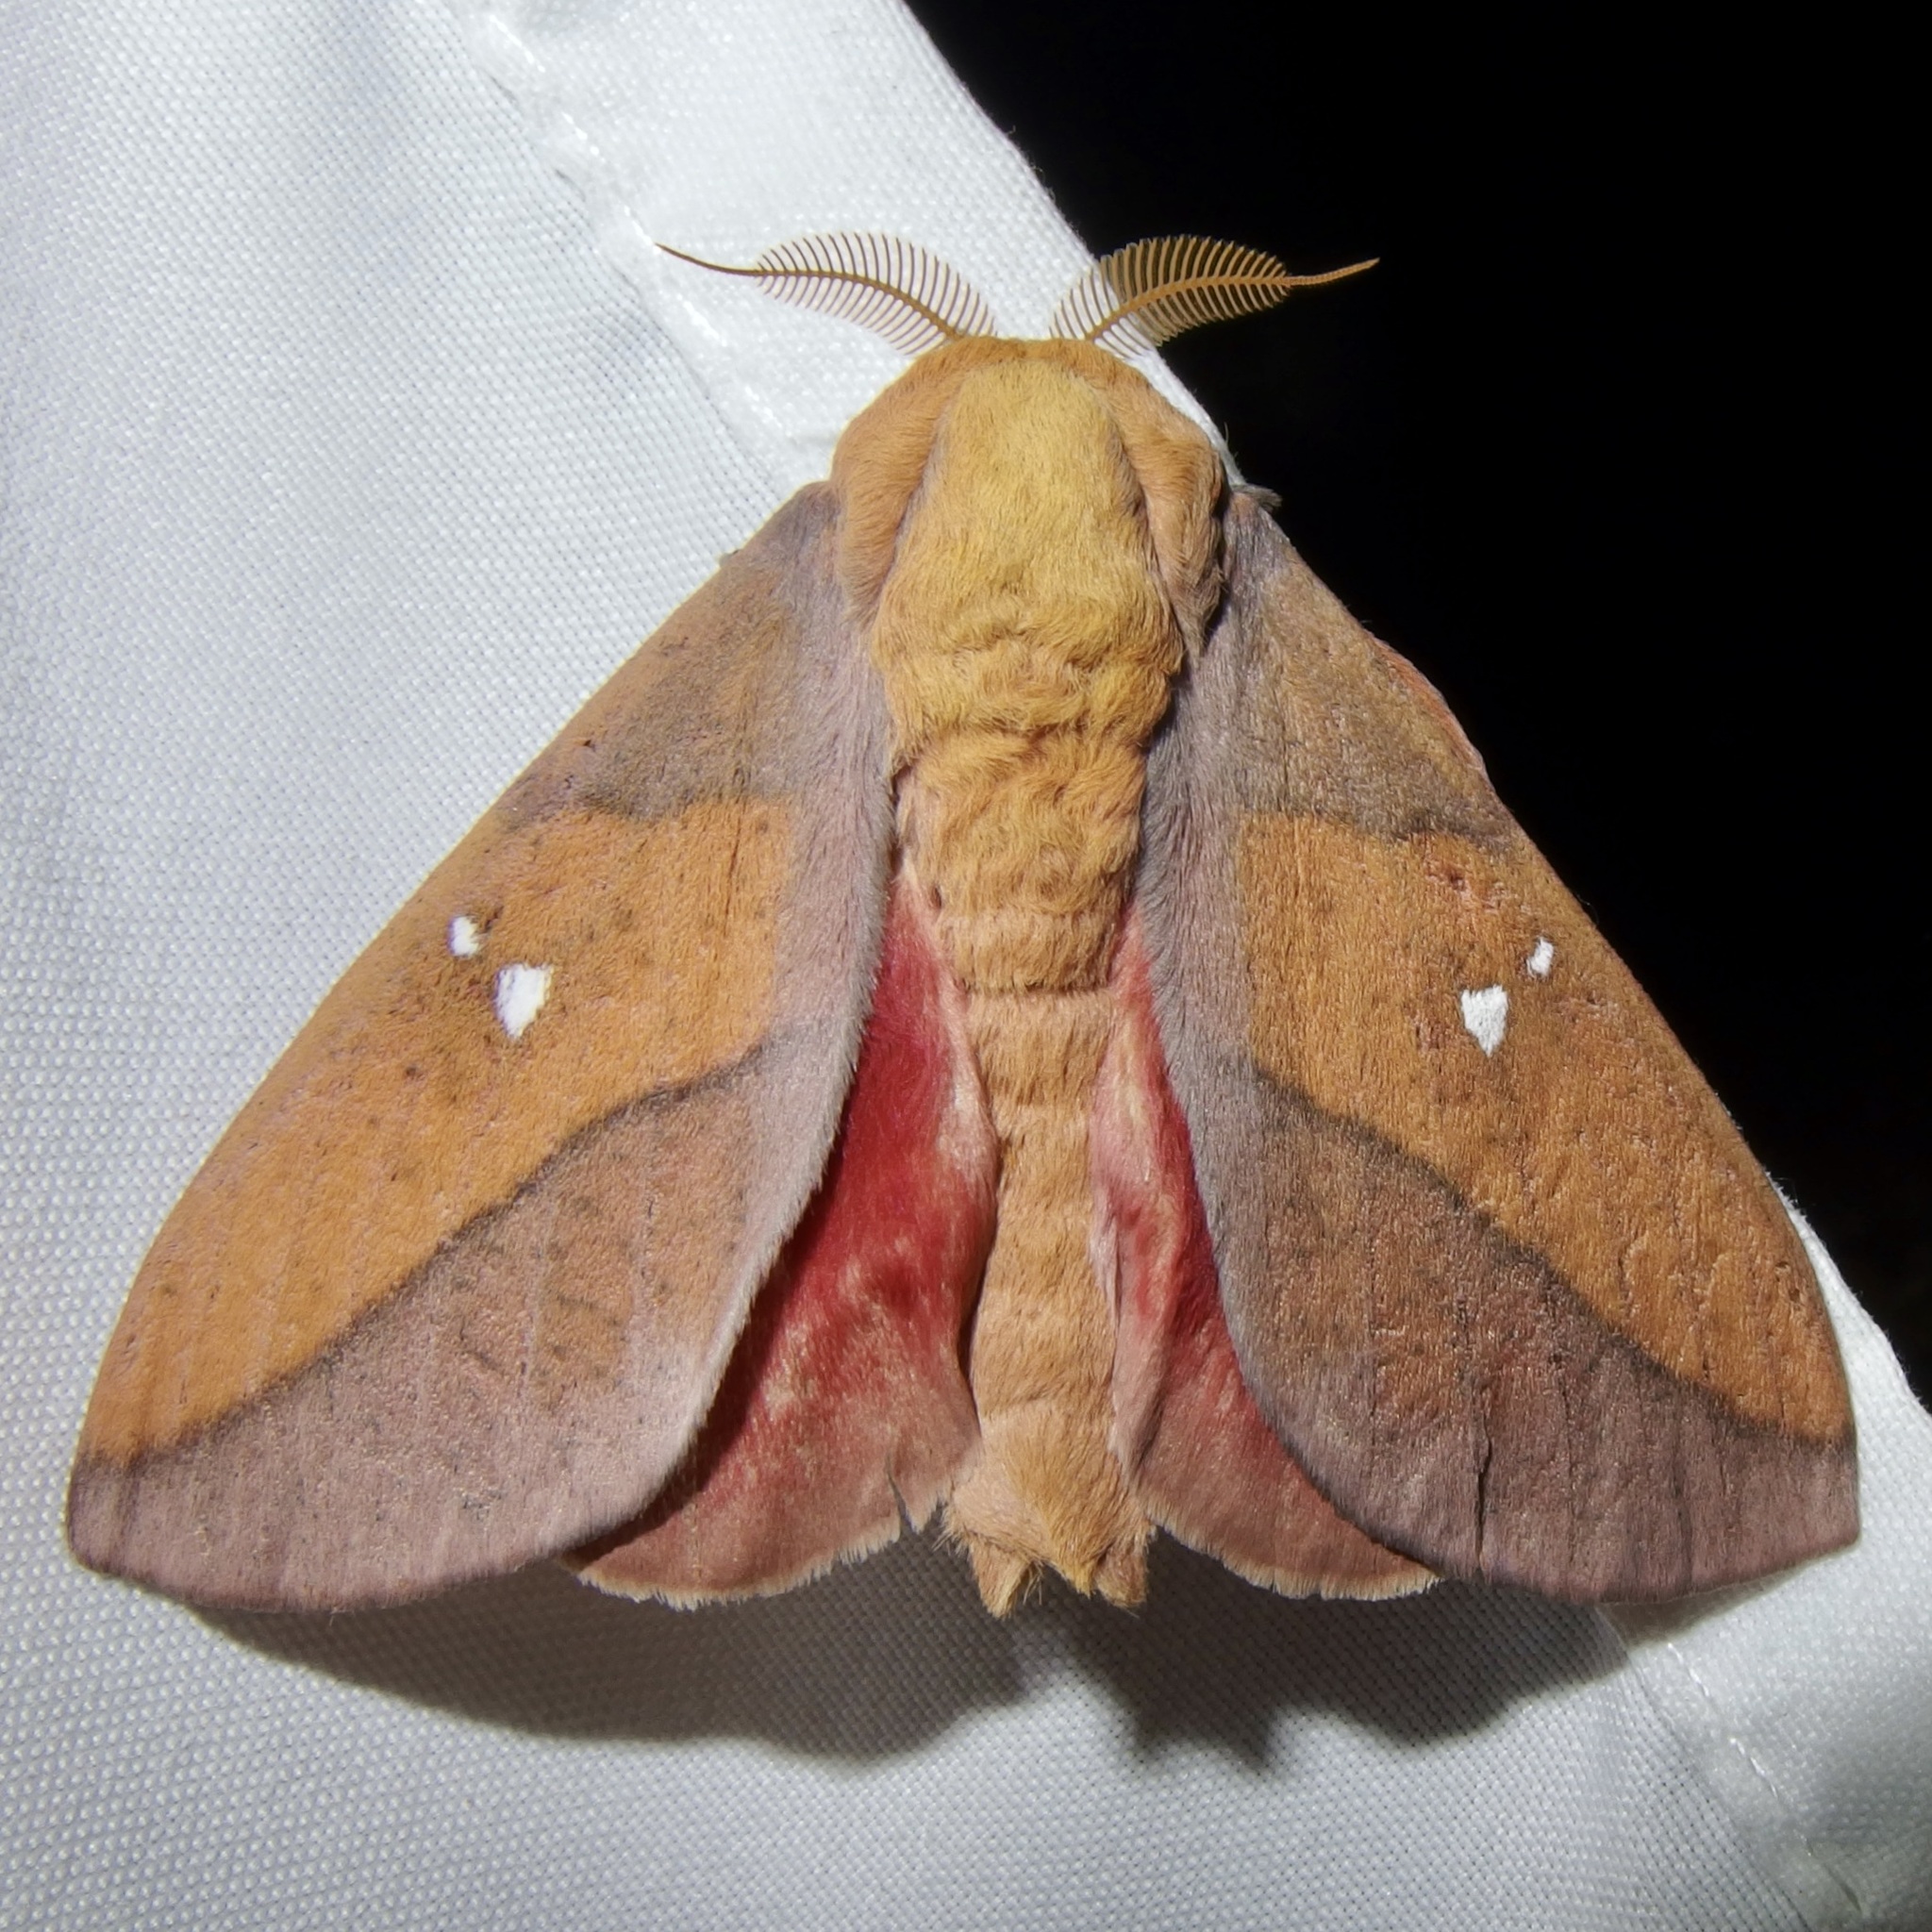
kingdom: Animalia
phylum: Arthropoda
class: Insecta
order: Lepidoptera
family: Saturniidae
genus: Syssphinx
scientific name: Syssphinx montana
